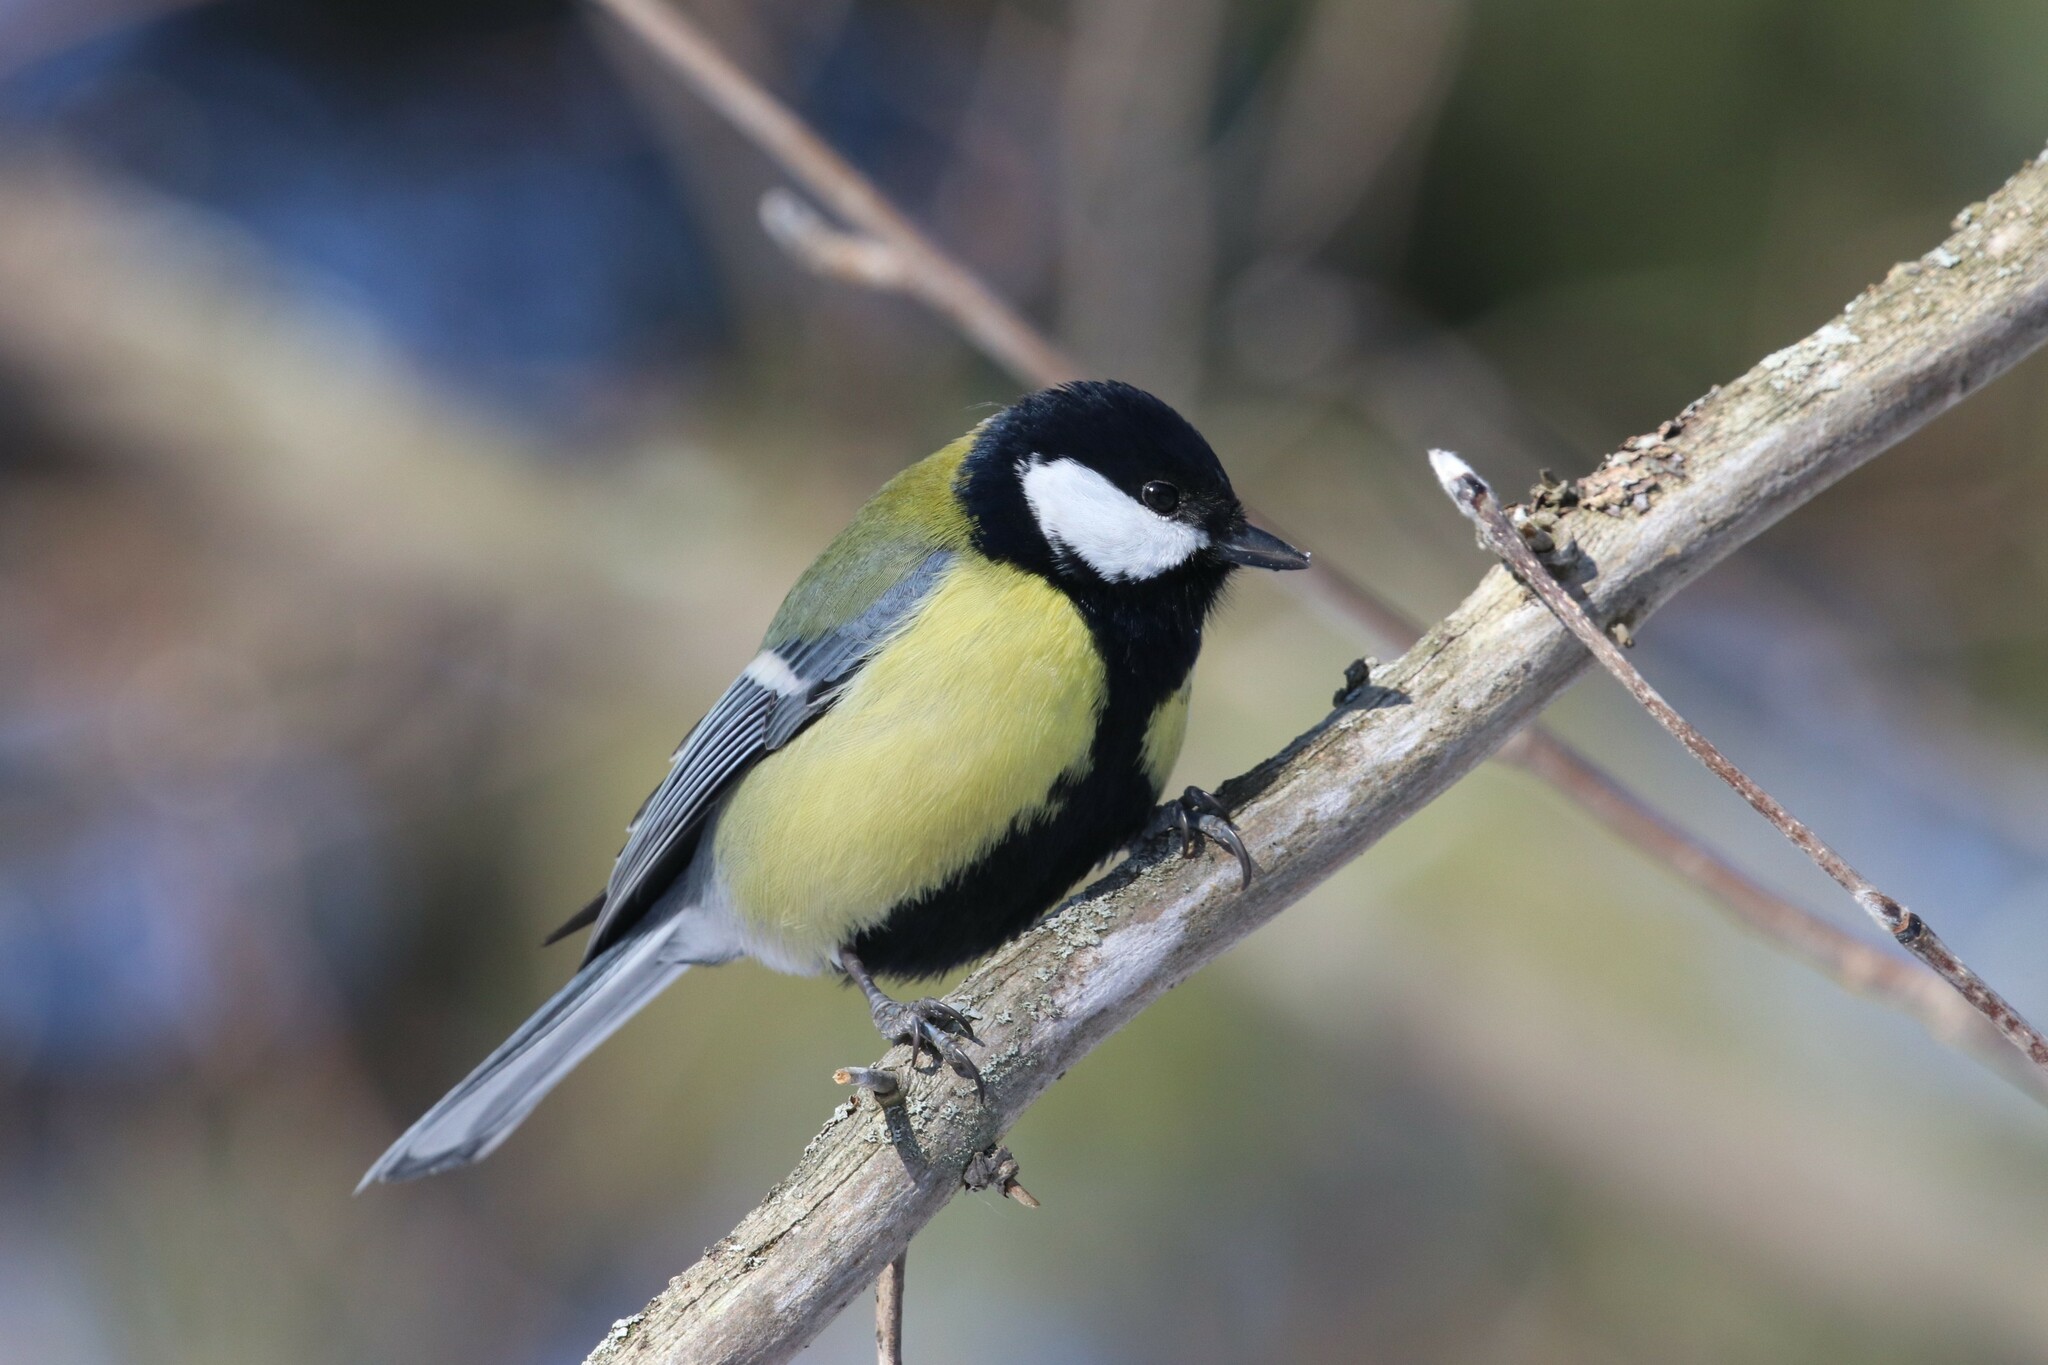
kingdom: Animalia
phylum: Chordata
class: Aves
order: Passeriformes
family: Paridae
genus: Parus
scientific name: Parus major
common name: Great tit
